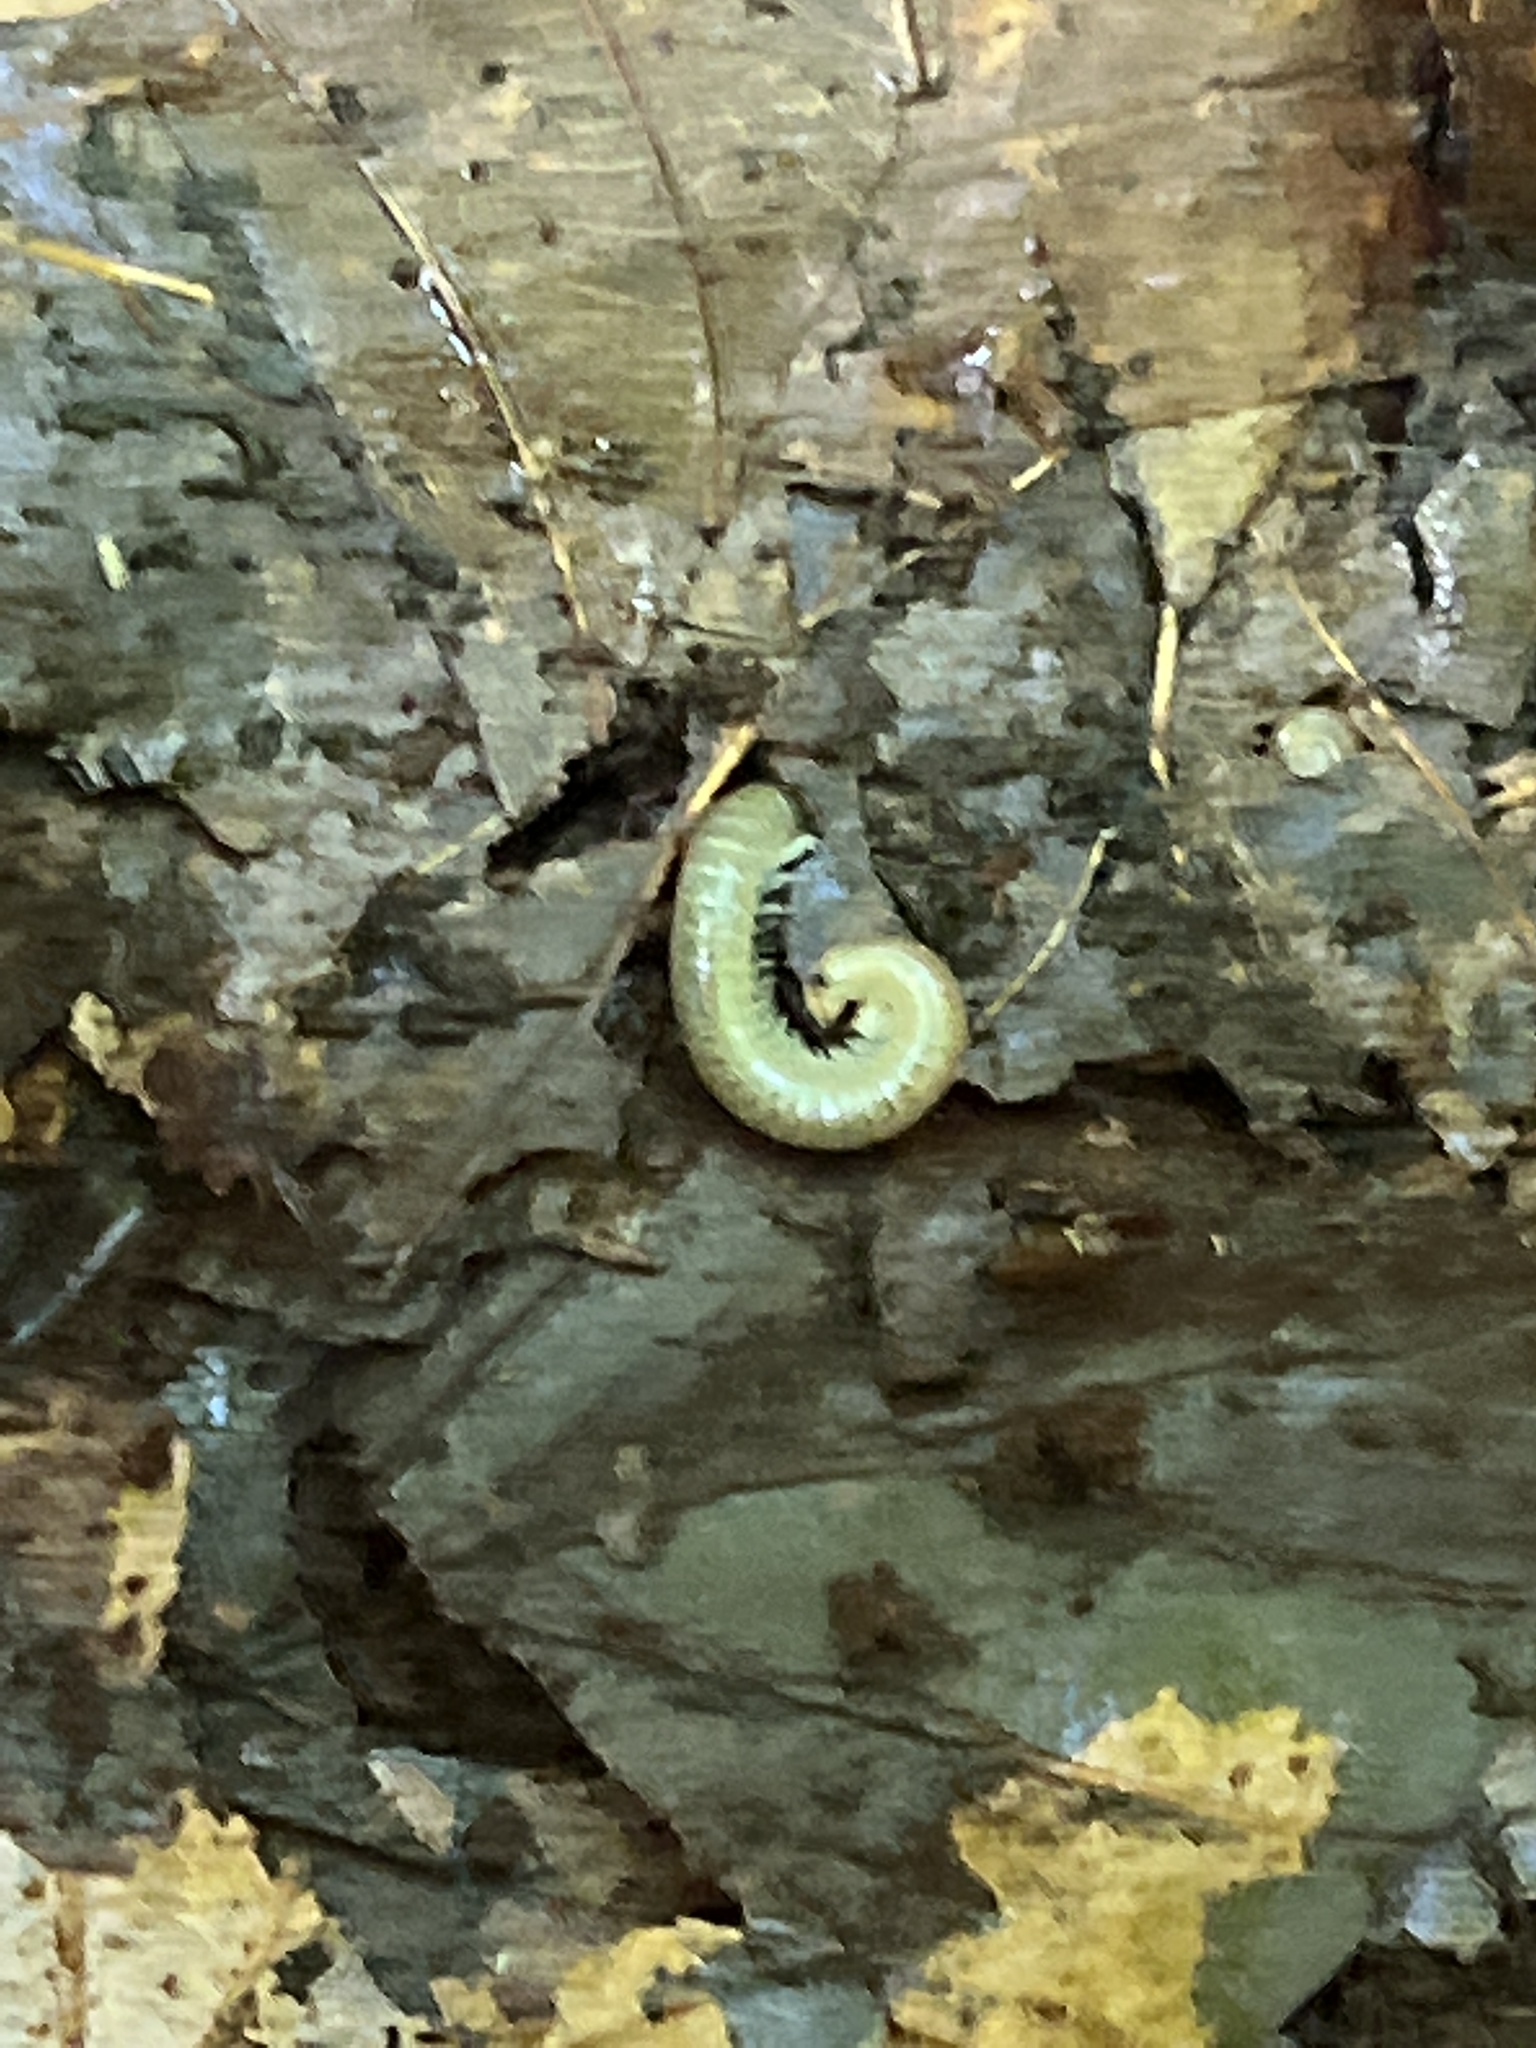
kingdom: Animalia
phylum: Arthropoda
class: Diplopoda
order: Julida
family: Julidae
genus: Cylindroiulus
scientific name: Cylindroiulus luridus
